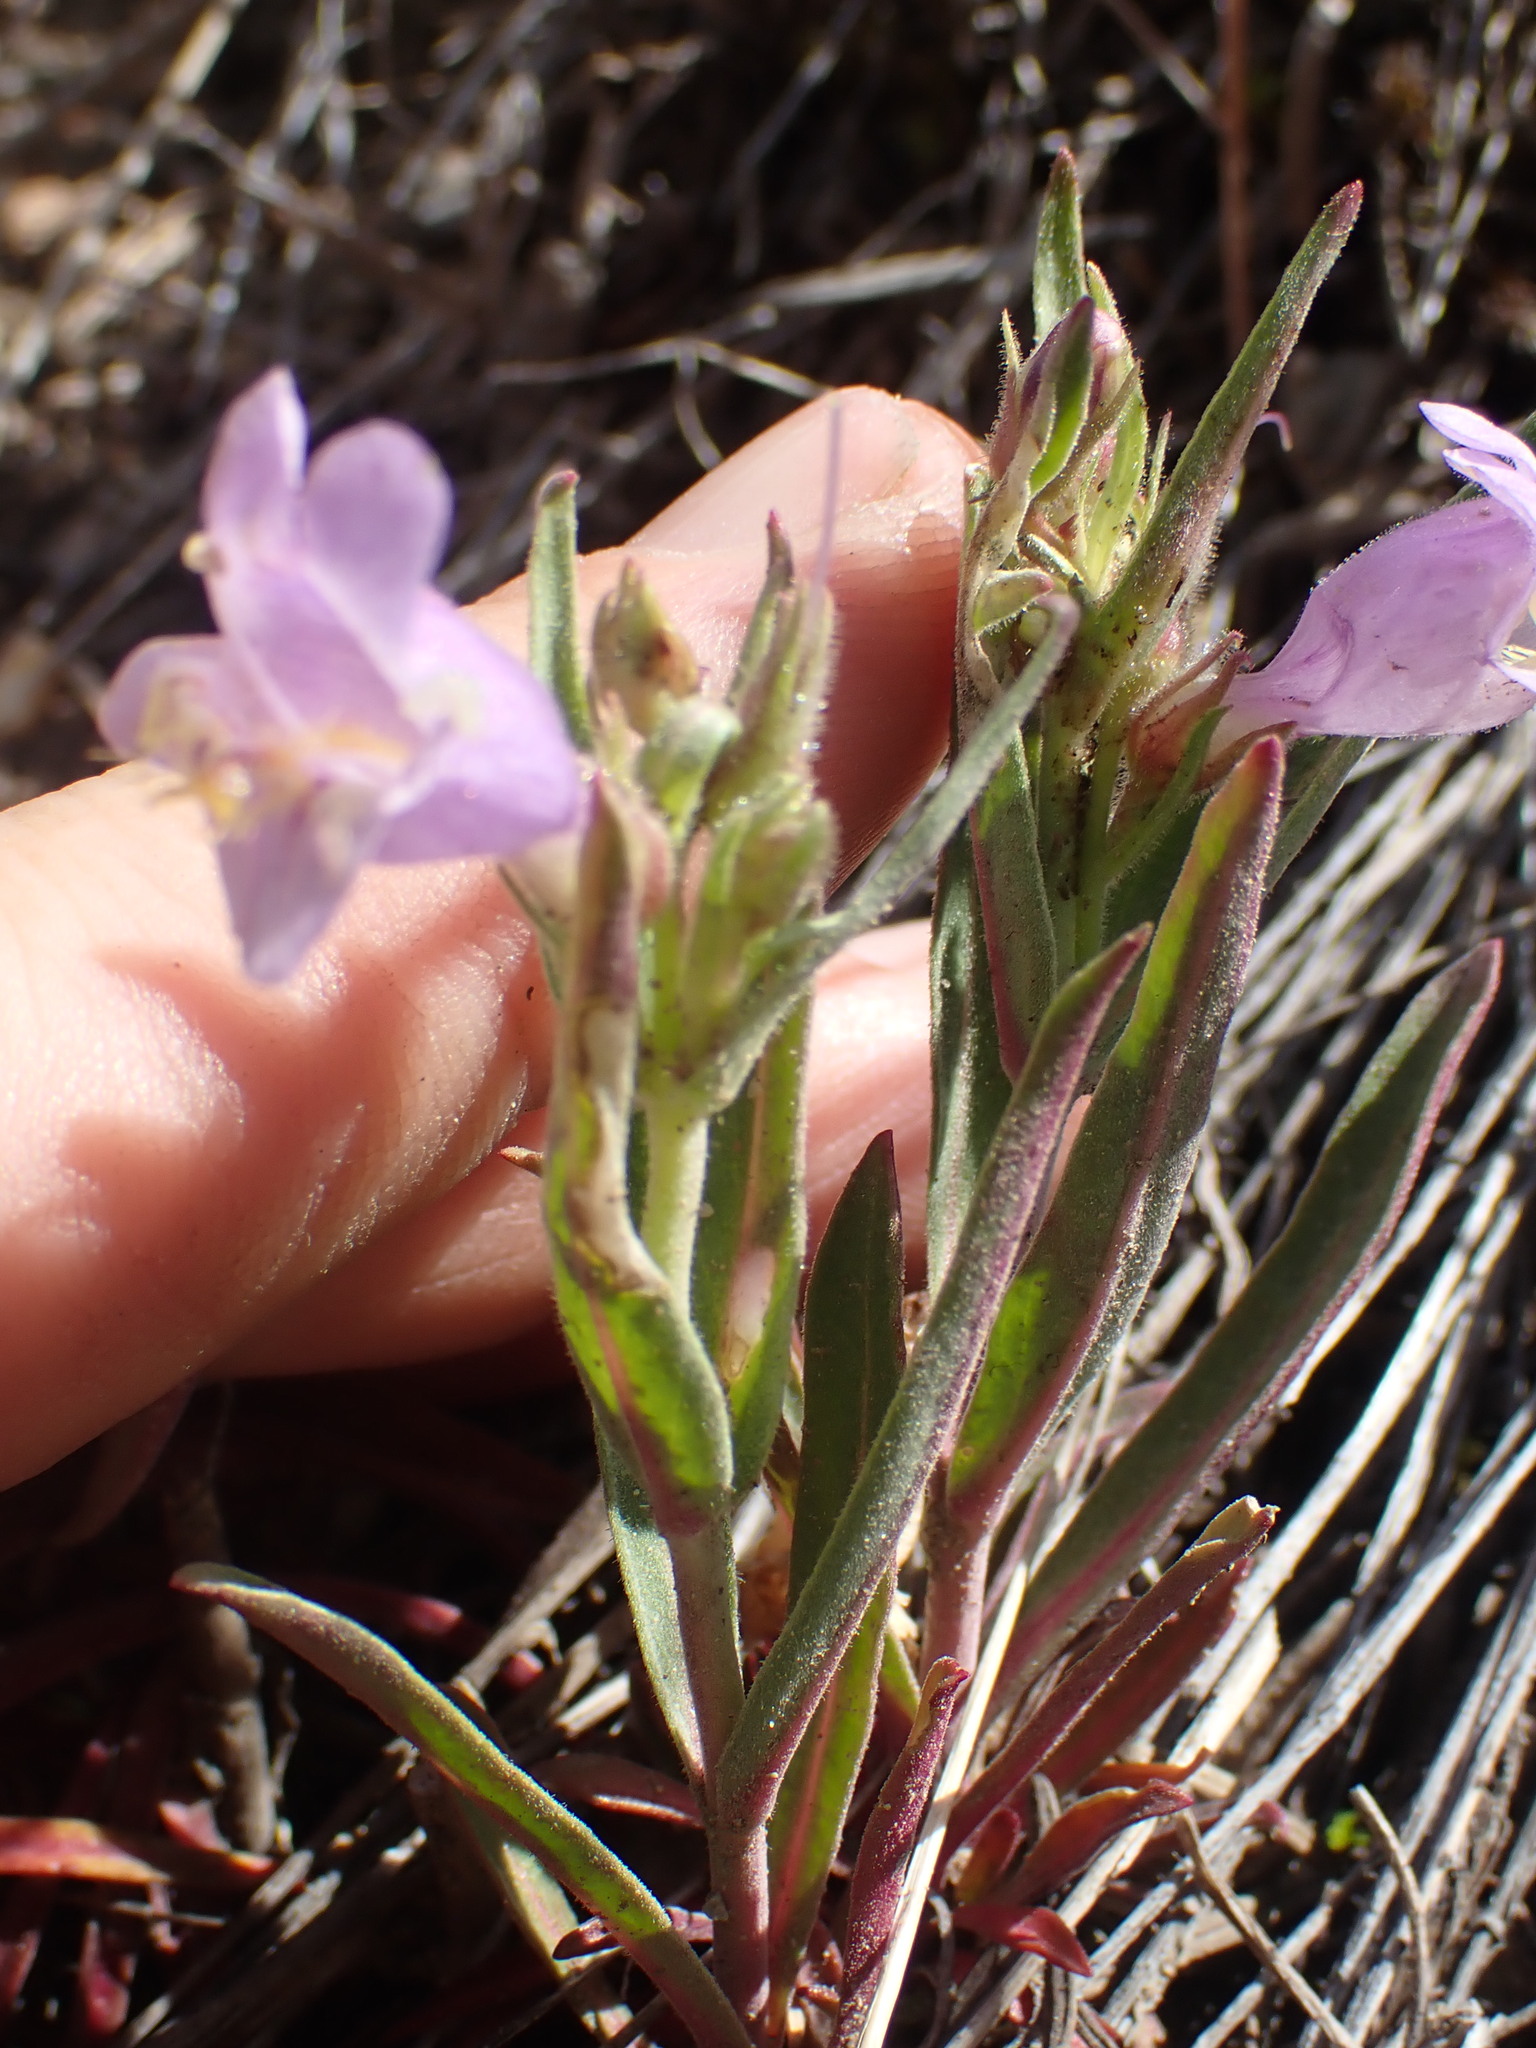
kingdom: Plantae
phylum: Tracheophyta
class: Magnoliopsida
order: Lamiales
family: Plantaginaceae
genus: Penstemon
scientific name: Penstemon eriantherus
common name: Crested beardtongue
